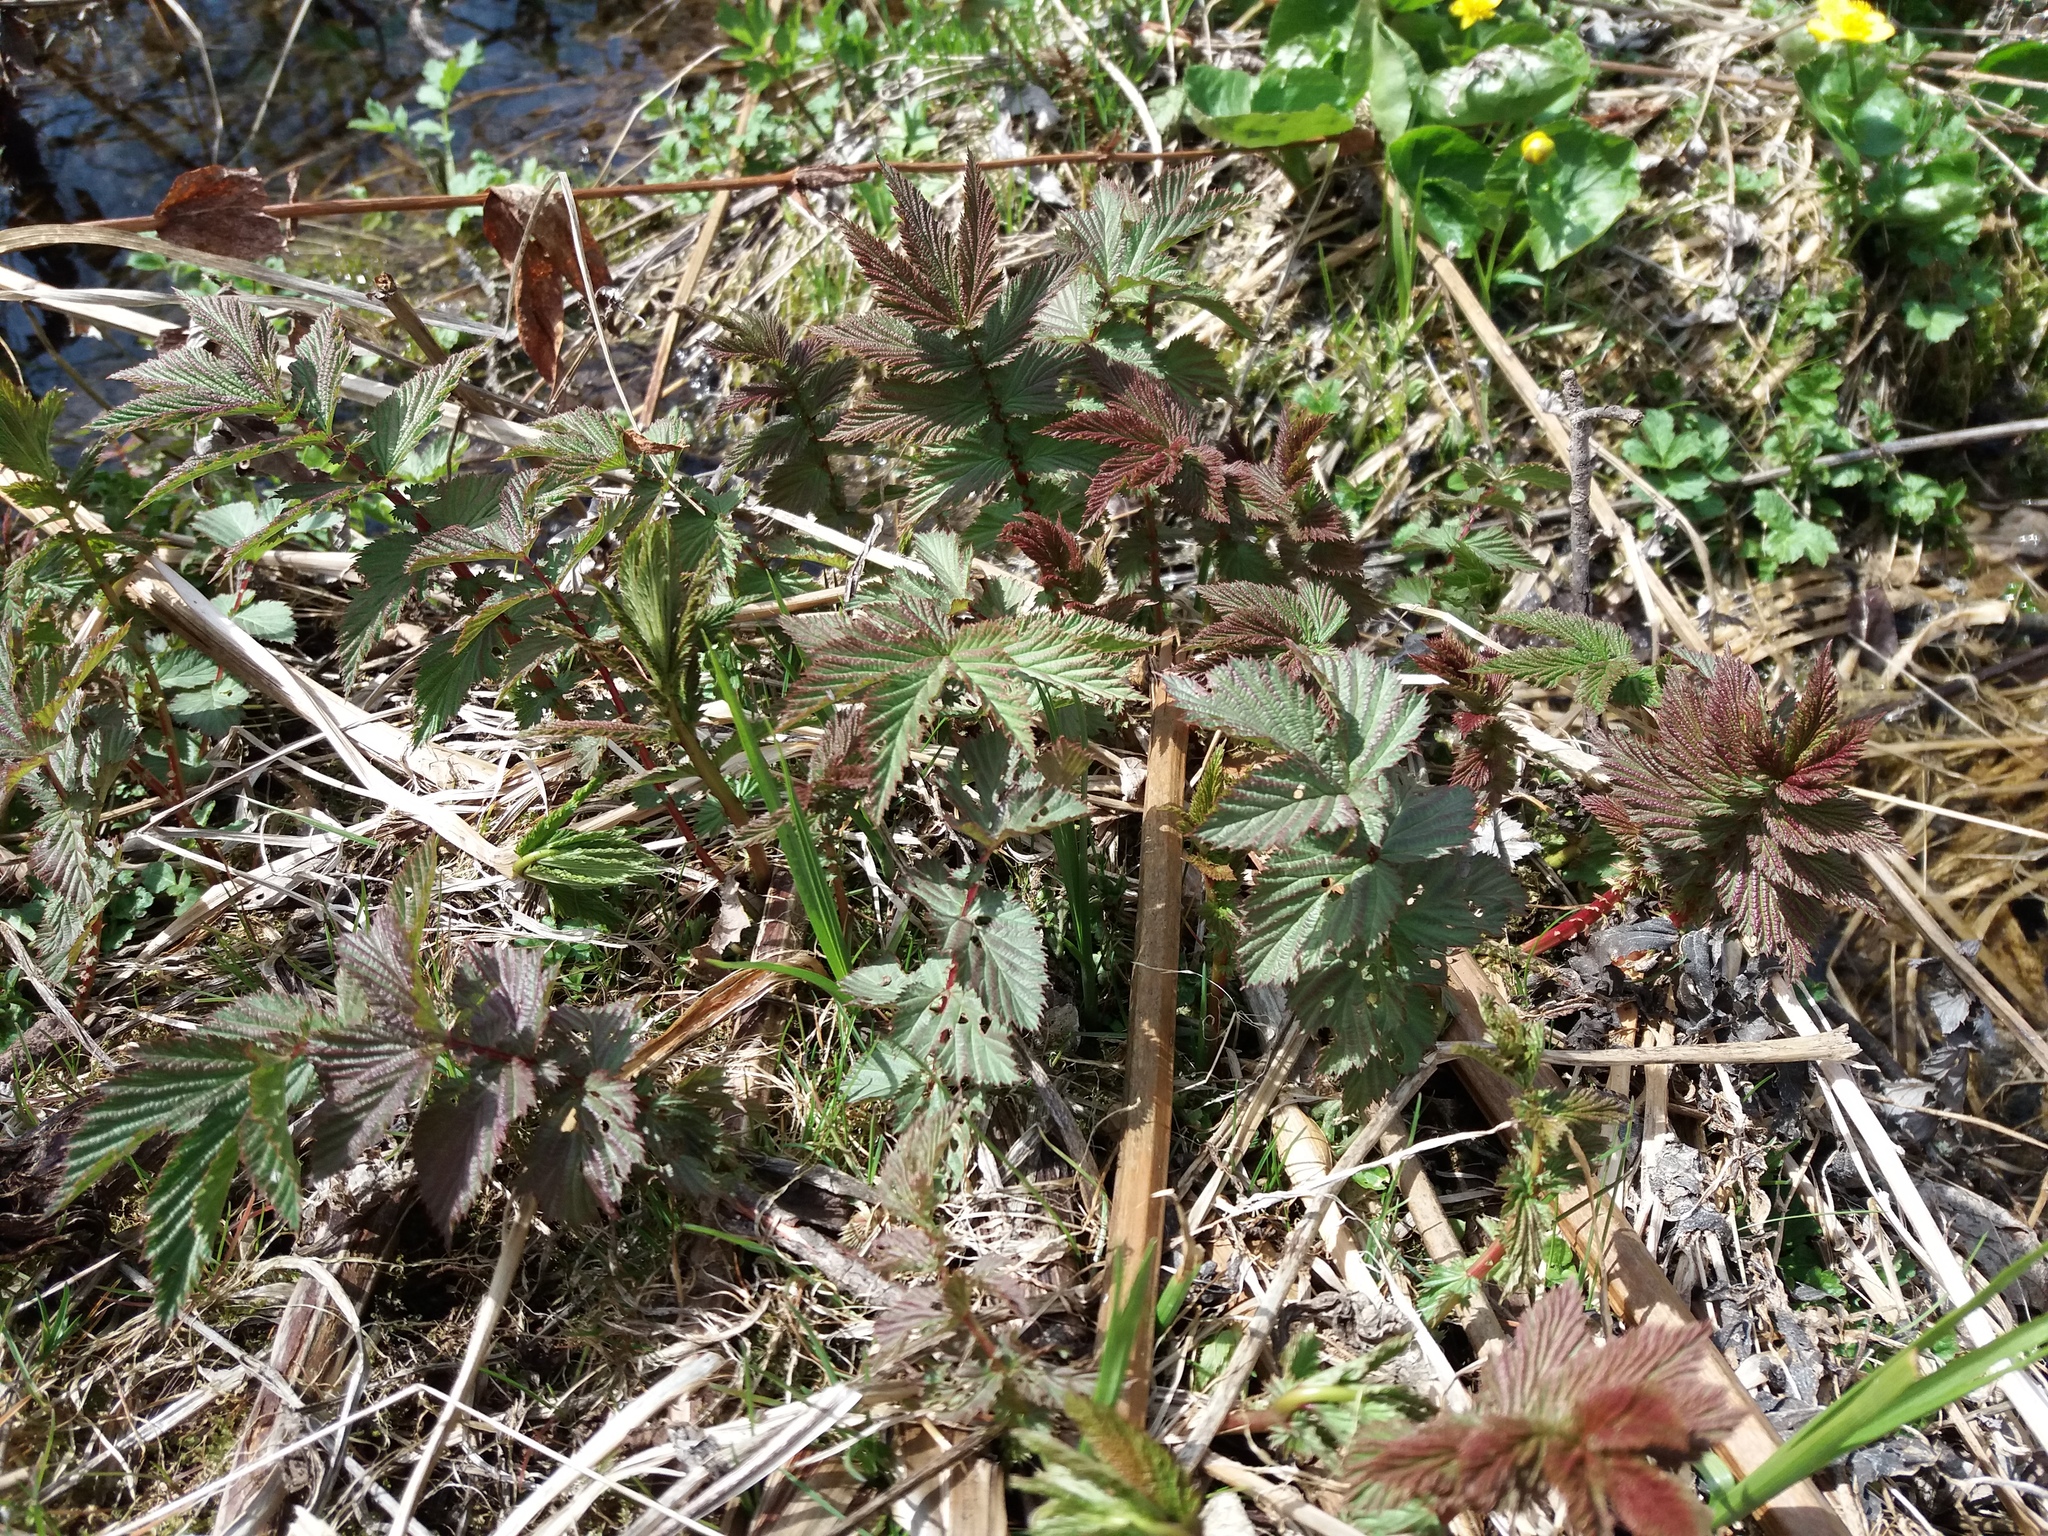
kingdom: Plantae
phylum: Tracheophyta
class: Magnoliopsida
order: Rosales
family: Rosaceae
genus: Filipendula
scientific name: Filipendula ulmaria
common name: Meadowsweet
